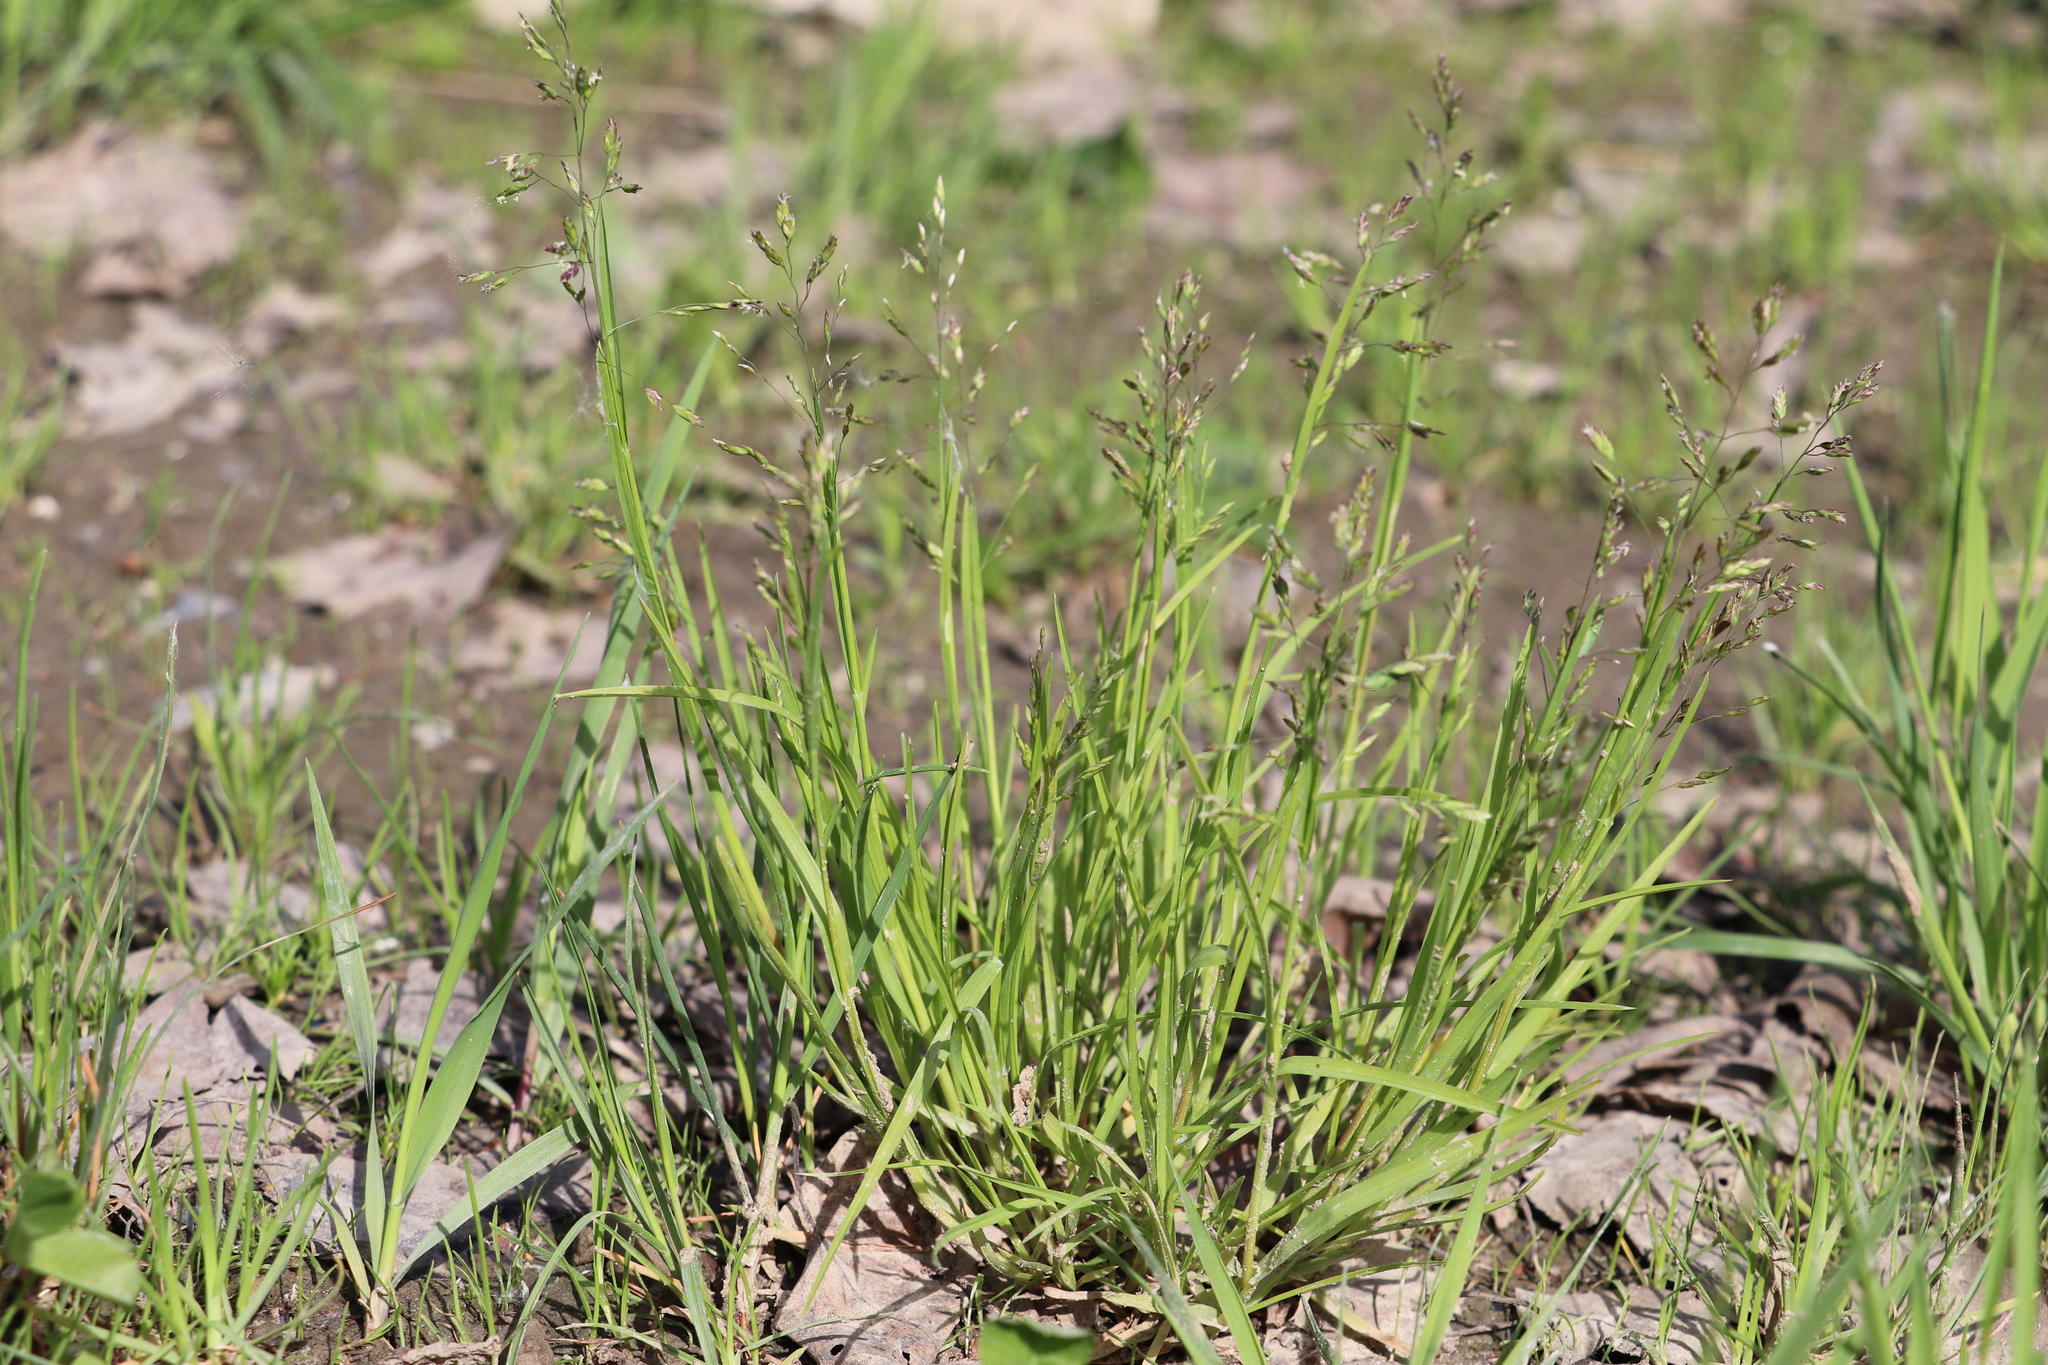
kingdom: Plantae
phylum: Tracheophyta
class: Liliopsida
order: Poales
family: Poaceae
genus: Poa
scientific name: Poa annua
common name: Annual bluegrass
